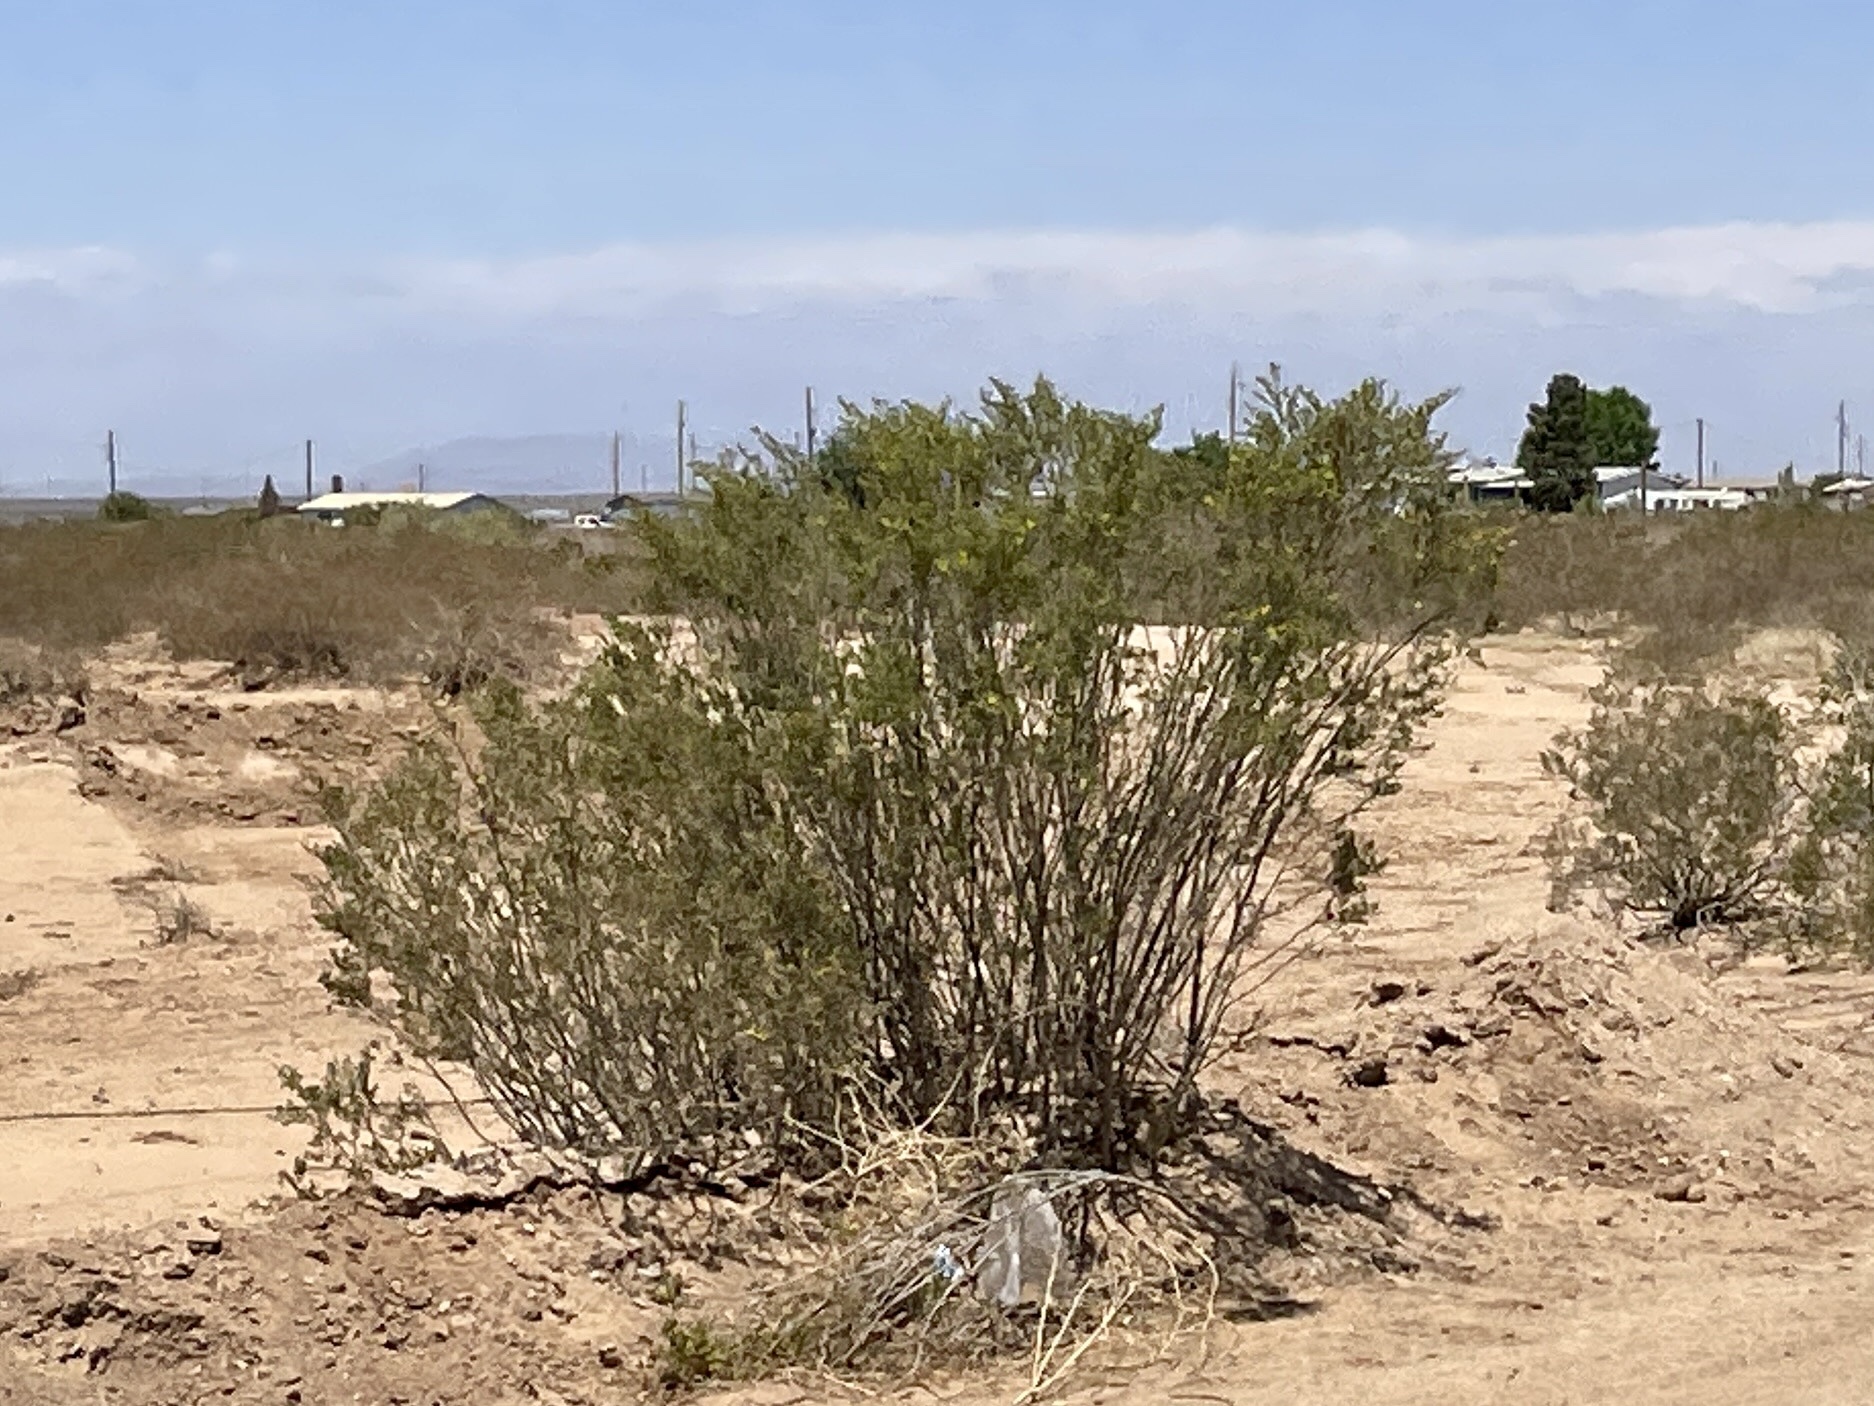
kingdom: Plantae
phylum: Tracheophyta
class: Magnoliopsida
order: Zygophyllales
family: Zygophyllaceae
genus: Larrea
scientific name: Larrea tridentata
